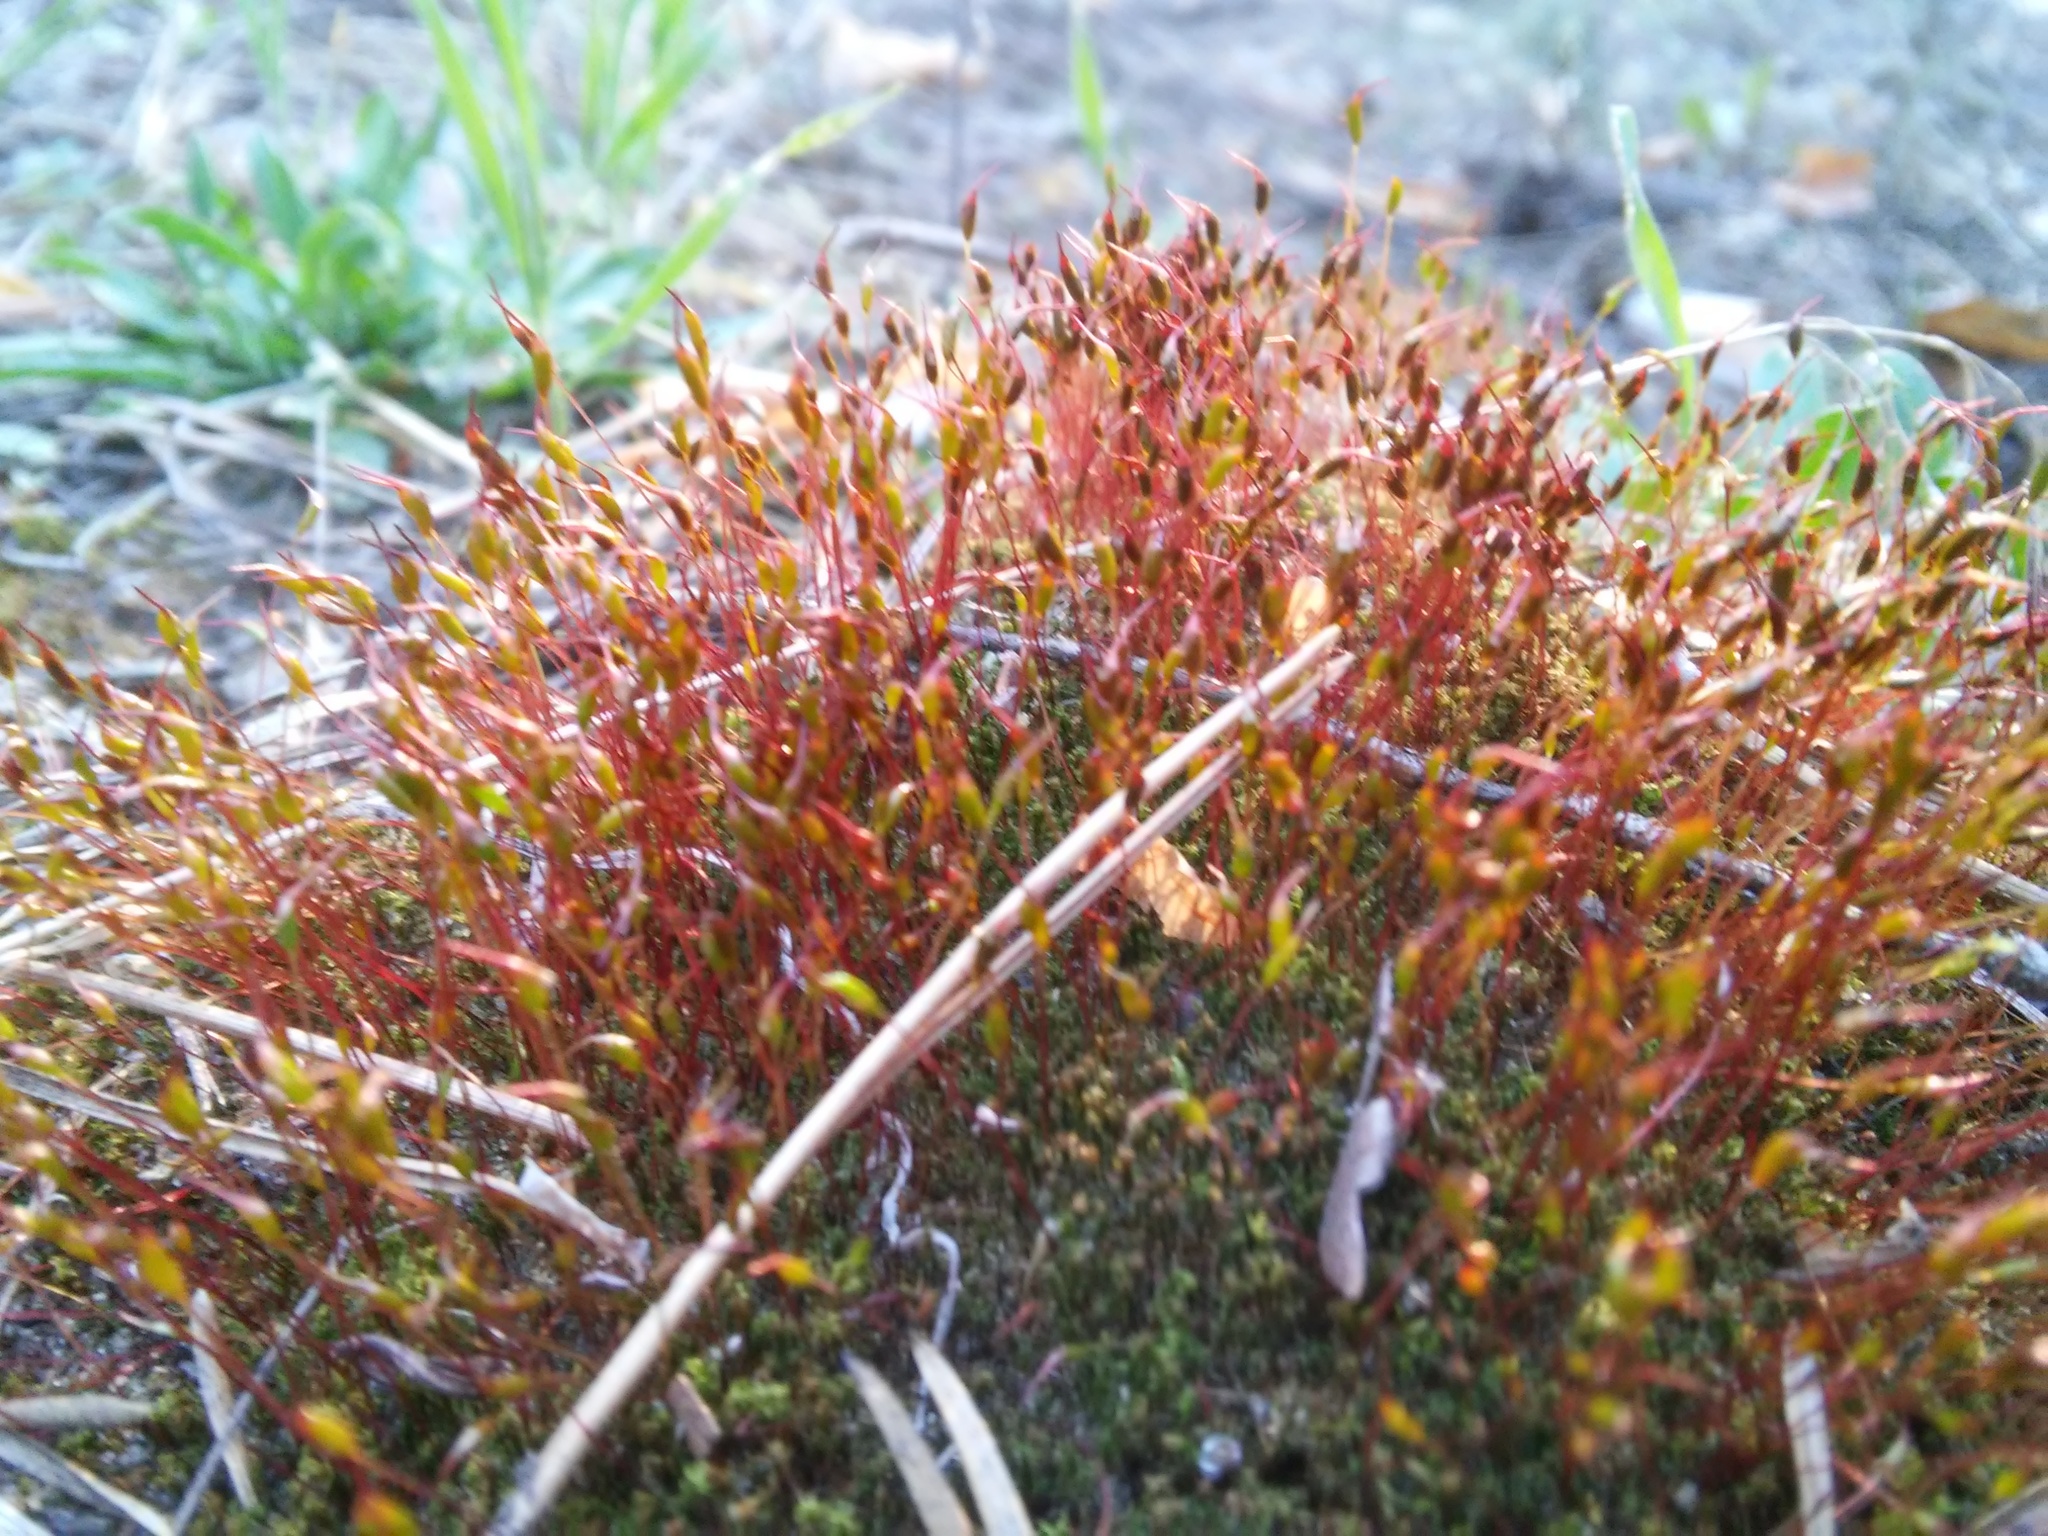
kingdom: Plantae
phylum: Bryophyta
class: Bryopsida
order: Dicranales
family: Ditrichaceae
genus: Ceratodon
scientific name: Ceratodon purpureus
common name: Redshank
